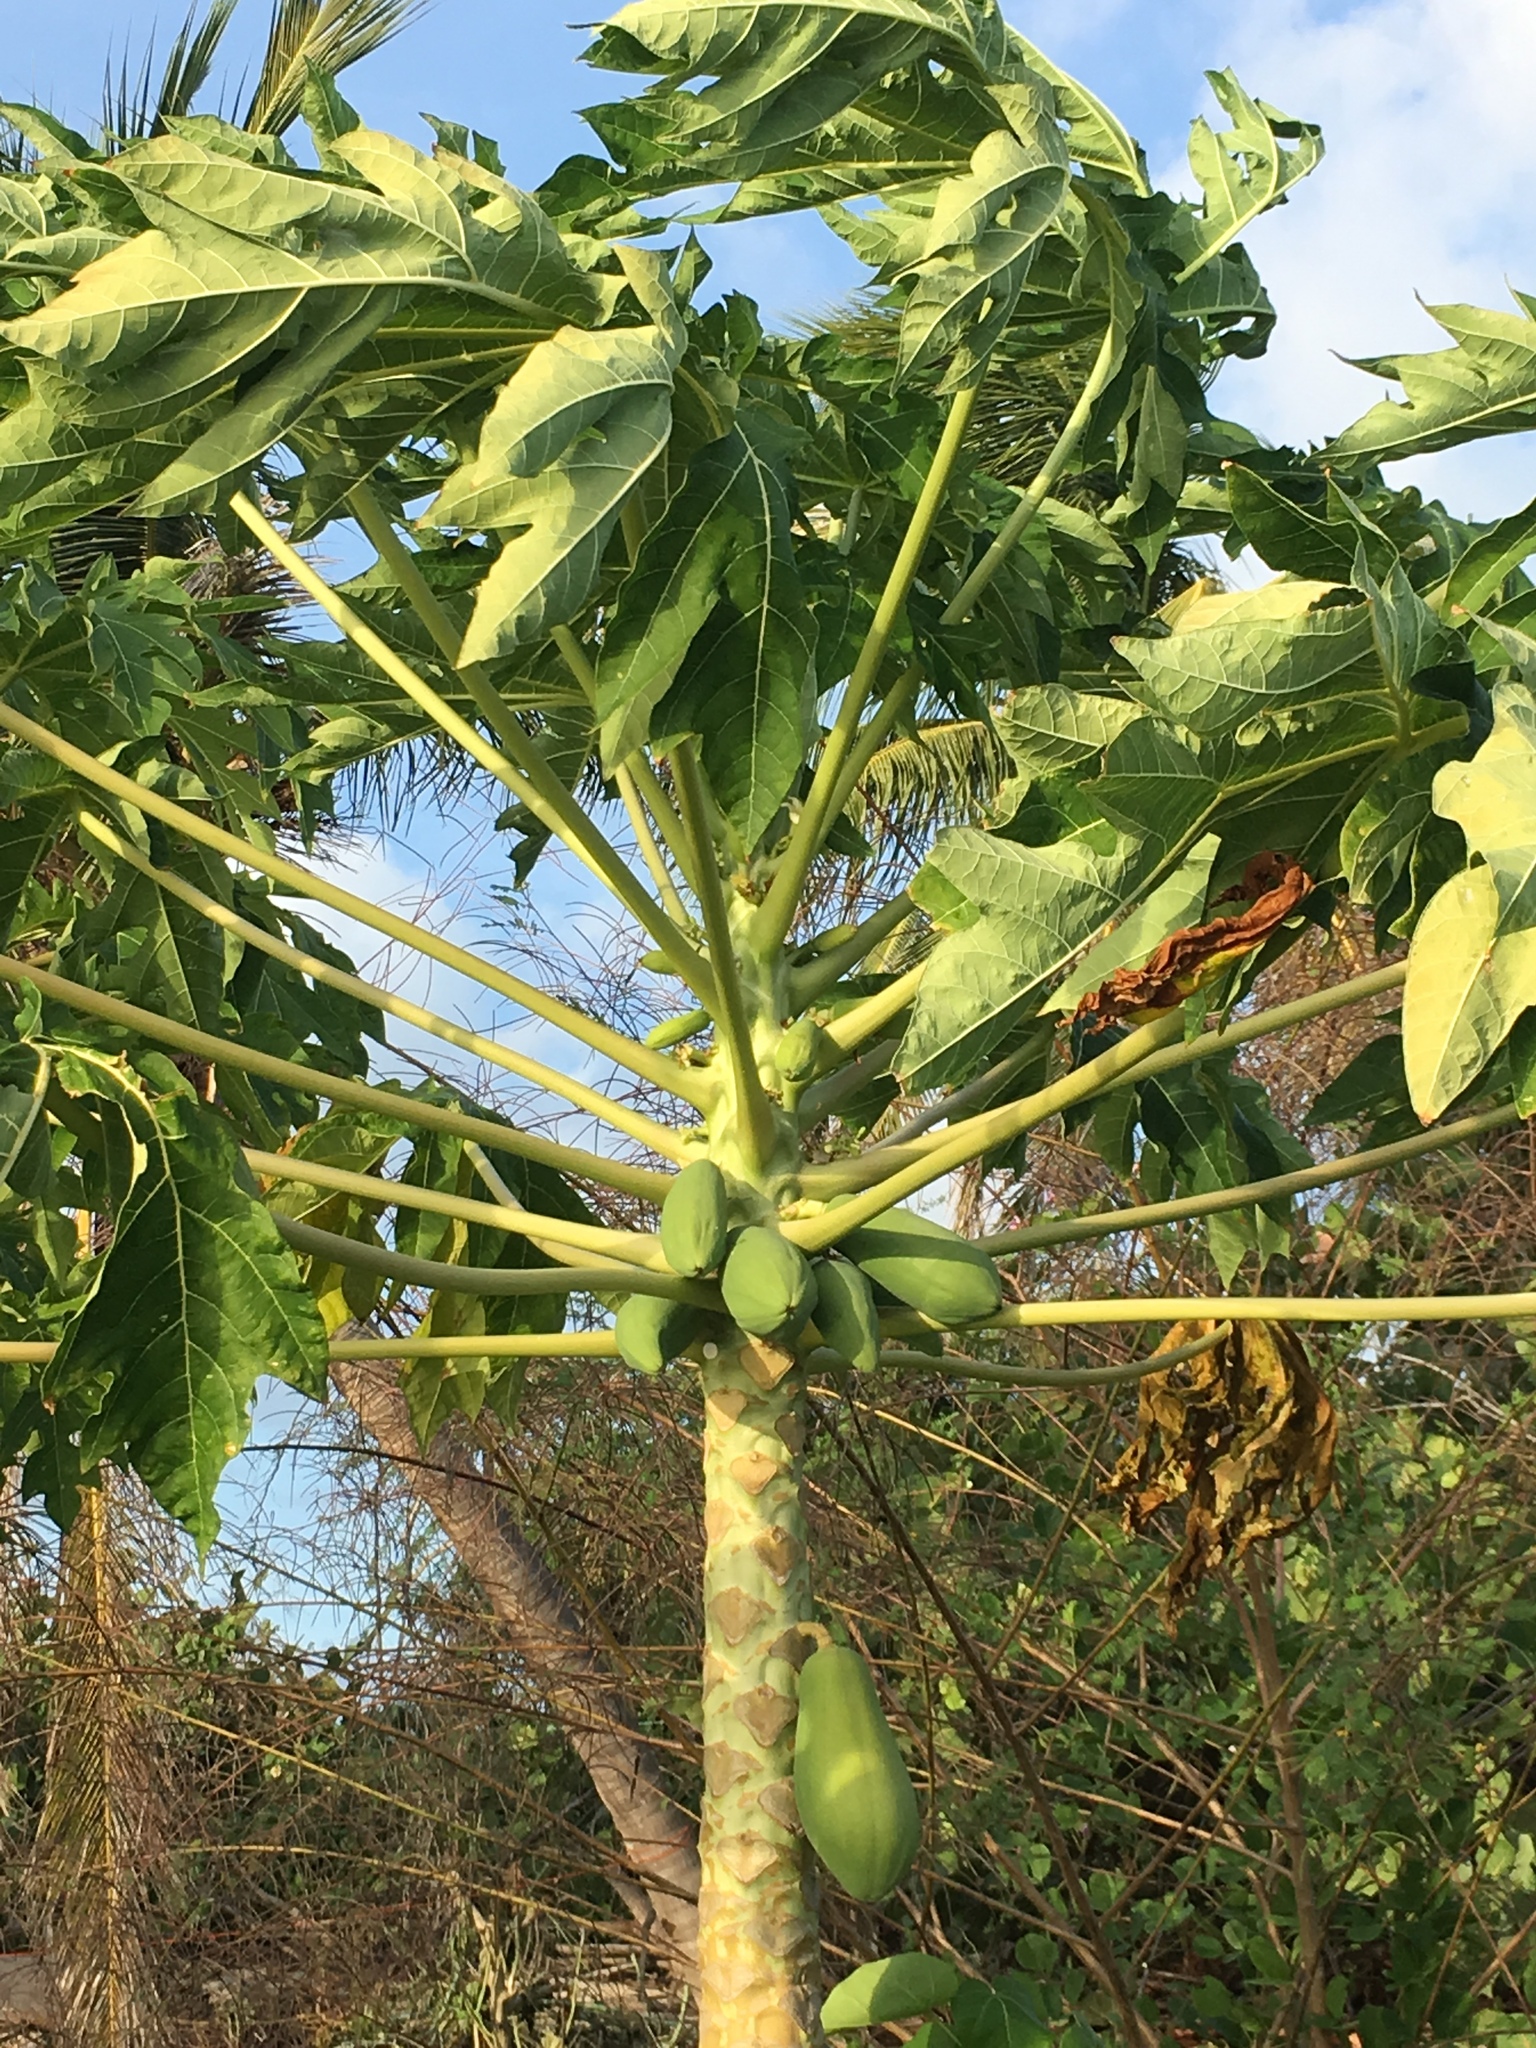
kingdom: Plantae
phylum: Tracheophyta
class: Magnoliopsida
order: Brassicales
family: Caricaceae
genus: Carica
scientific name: Carica papaya
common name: Papaya
